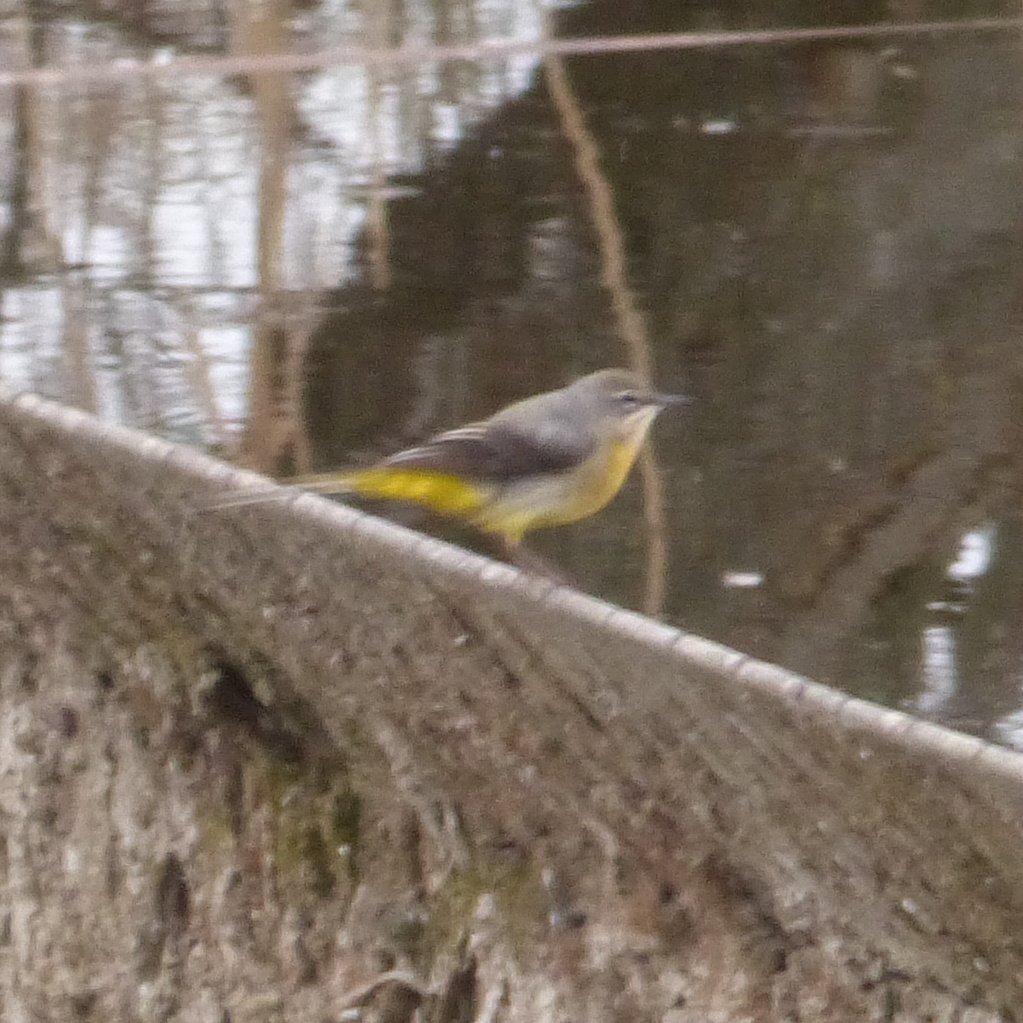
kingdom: Animalia
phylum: Chordata
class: Aves
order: Passeriformes
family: Motacillidae
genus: Motacilla
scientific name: Motacilla cinerea
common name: Grey wagtail
